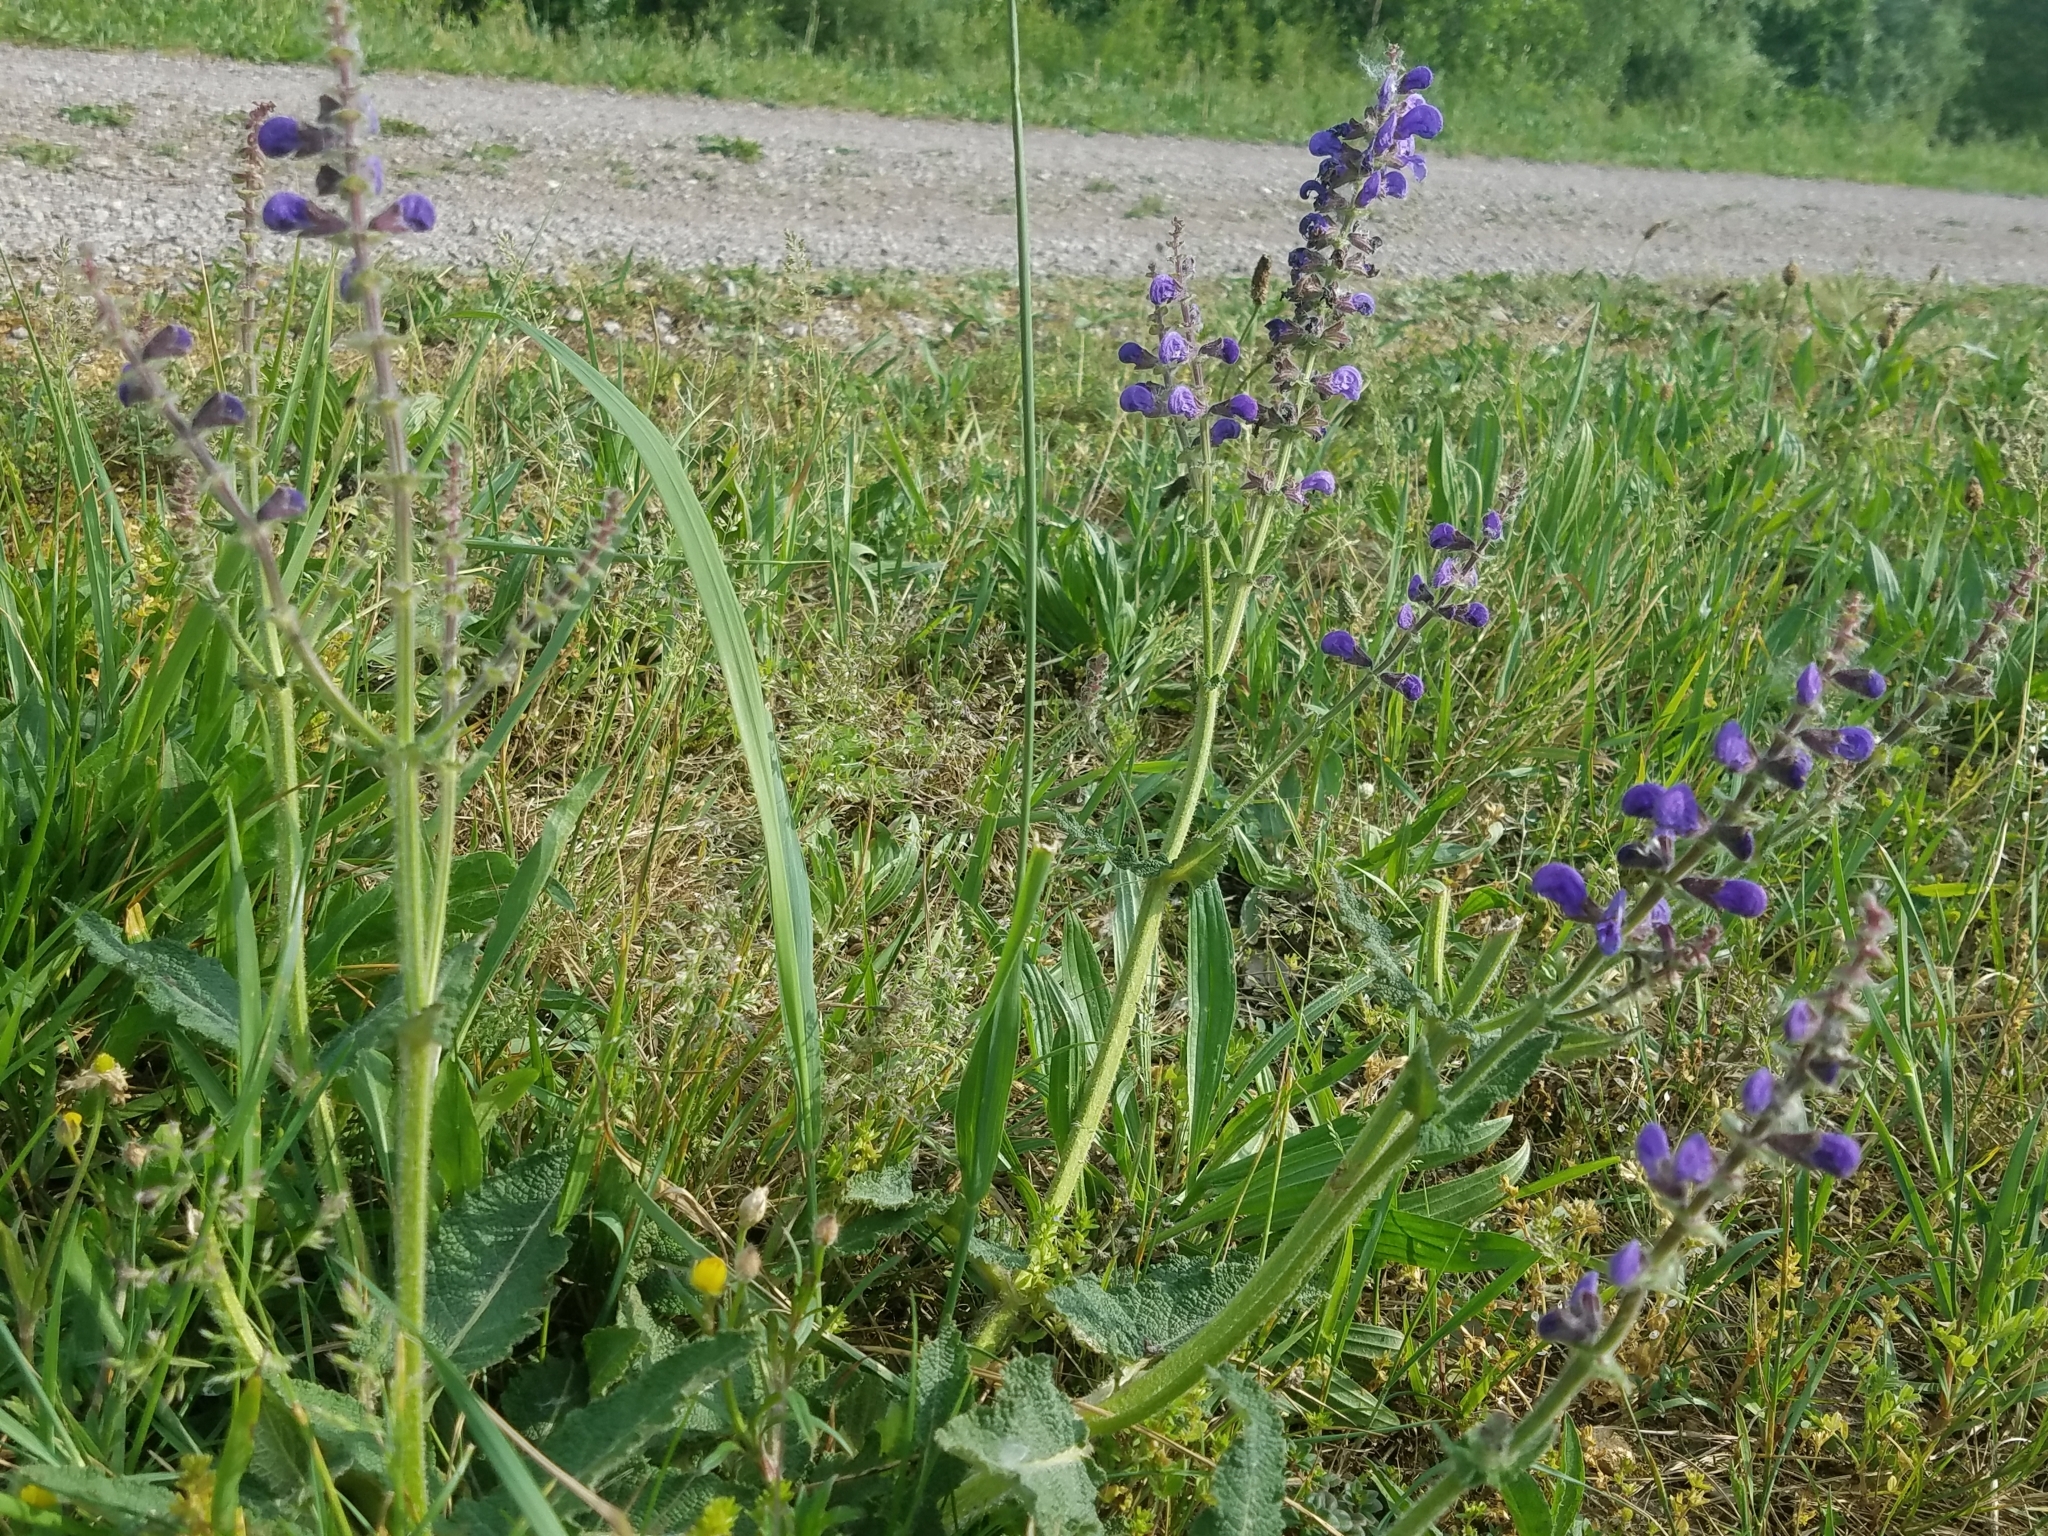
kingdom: Plantae
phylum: Tracheophyta
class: Magnoliopsida
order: Lamiales
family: Lamiaceae
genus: Salvia
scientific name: Salvia pratensis
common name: Meadow sage
